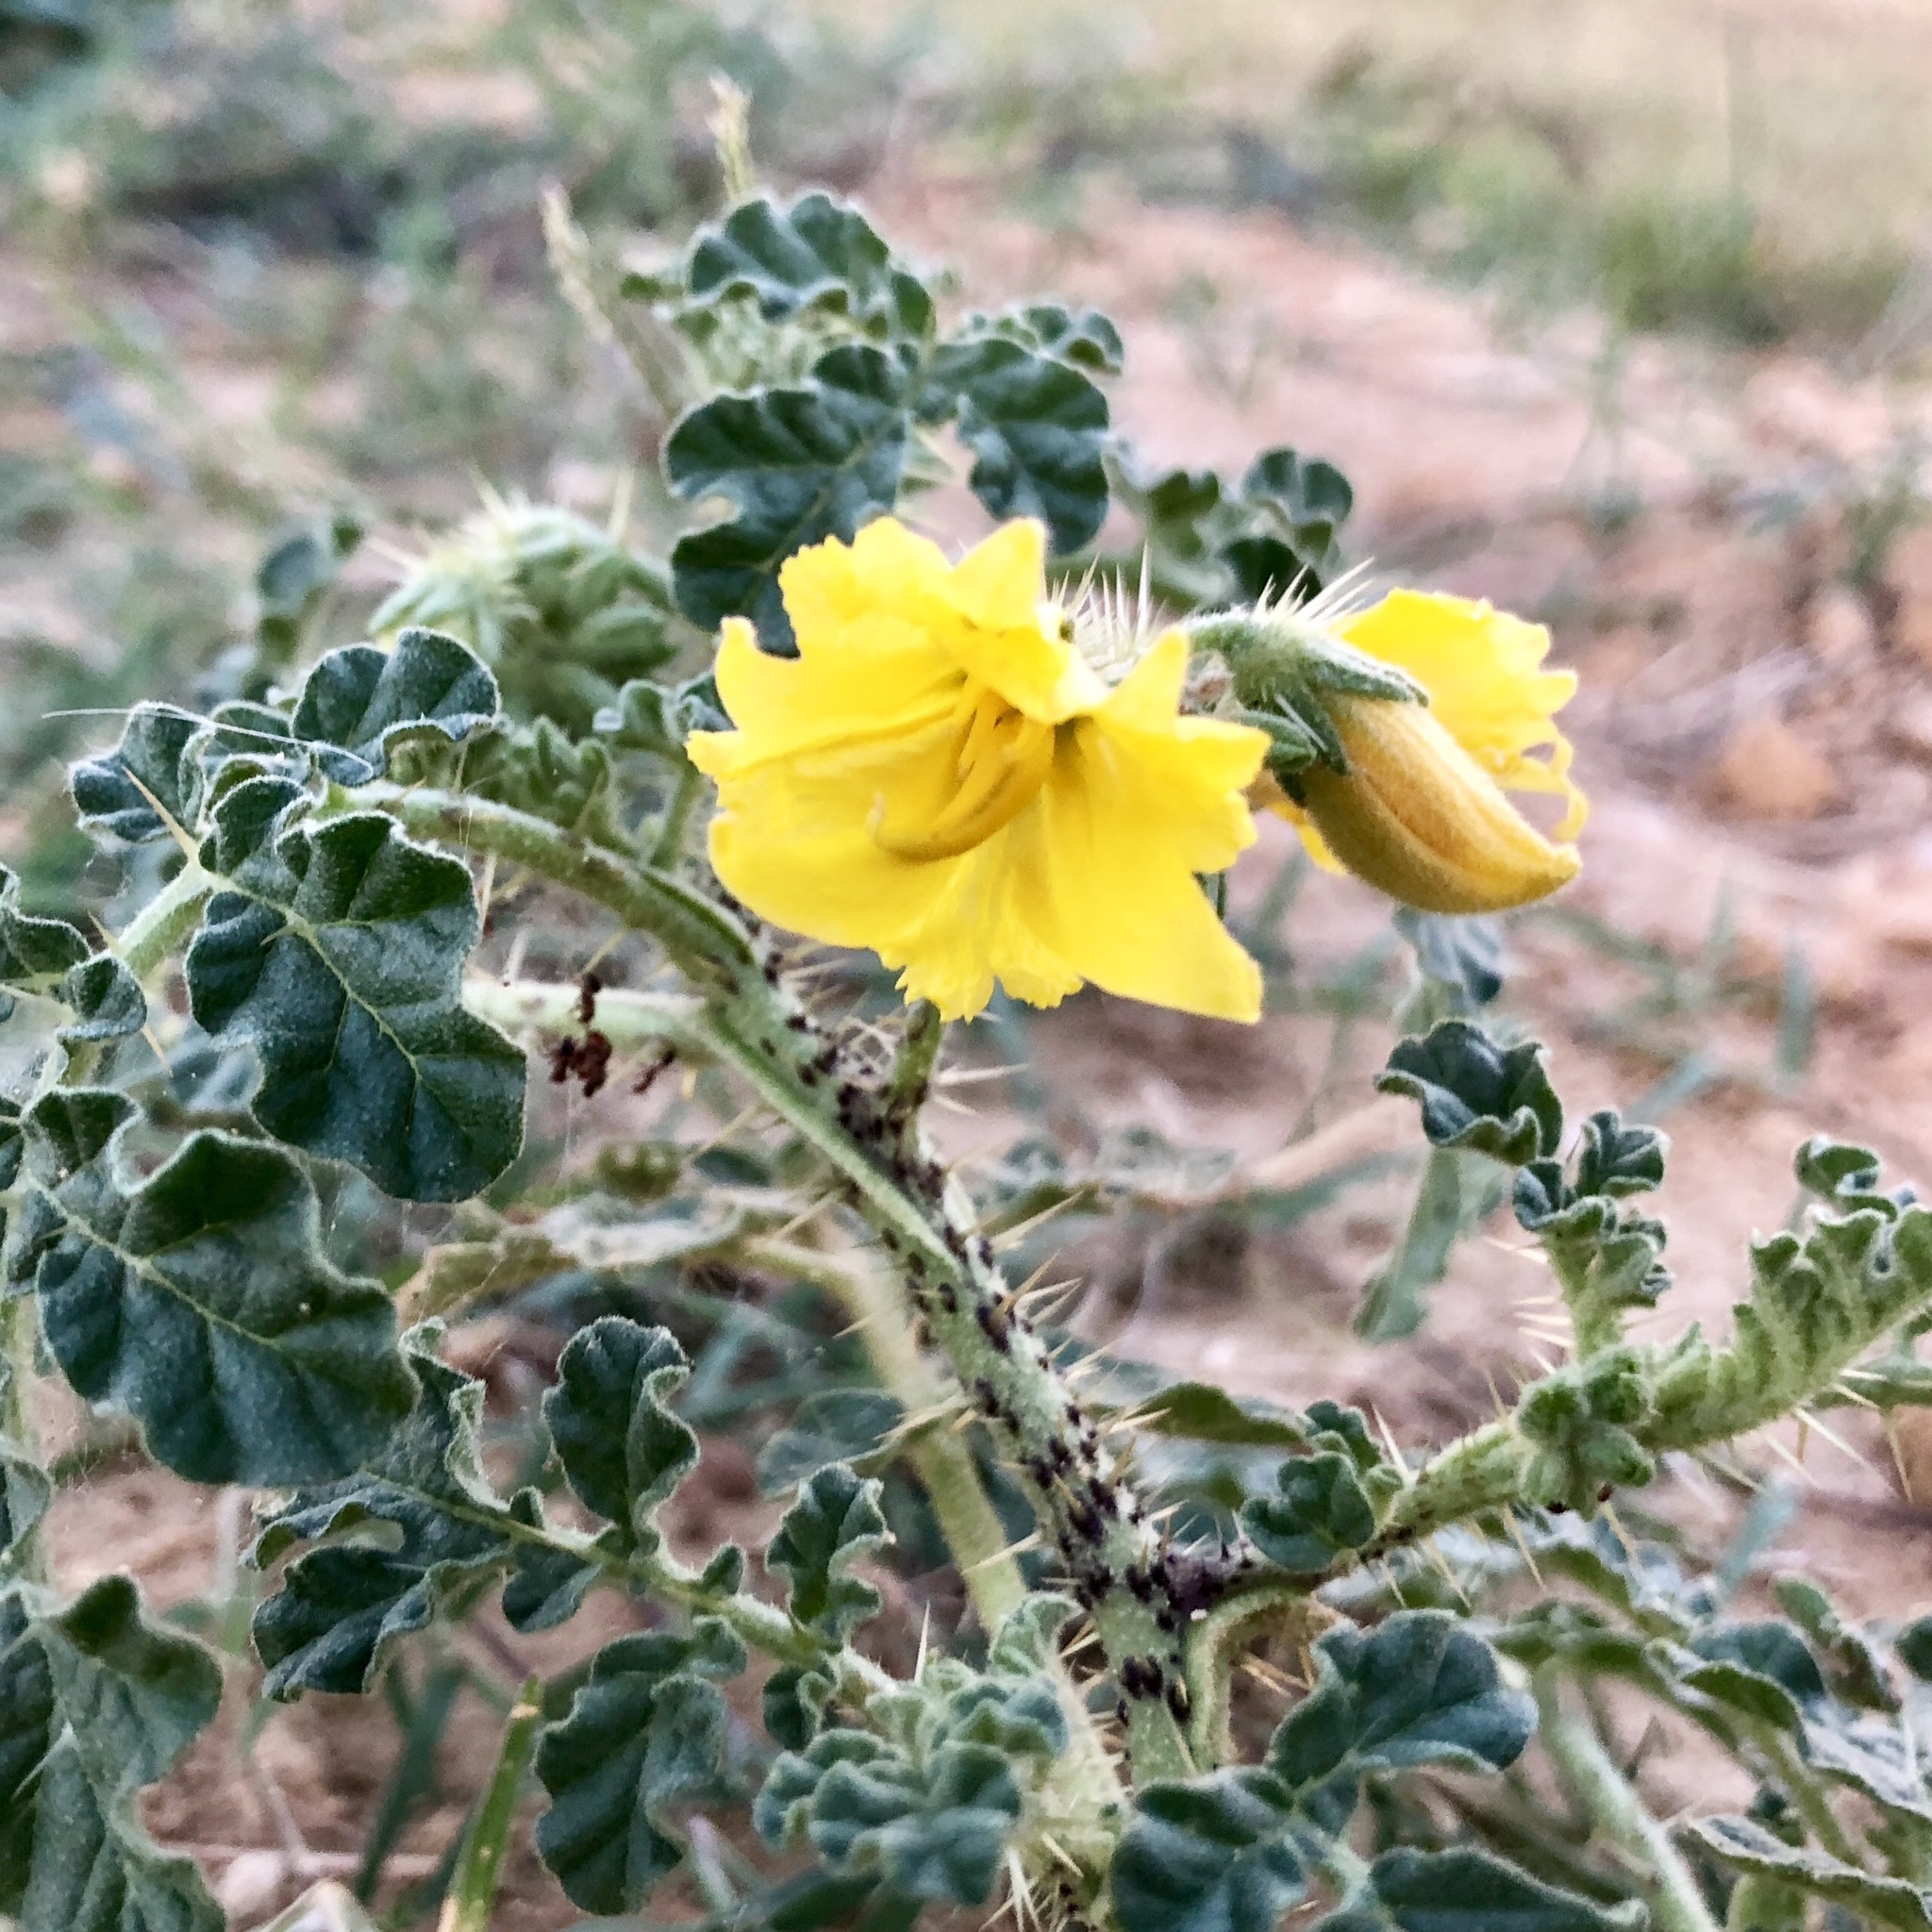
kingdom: Plantae
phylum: Tracheophyta
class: Magnoliopsida
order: Solanales
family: Solanaceae
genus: Solanum
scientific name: Solanum angustifolium
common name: Buffalobur nightshade
